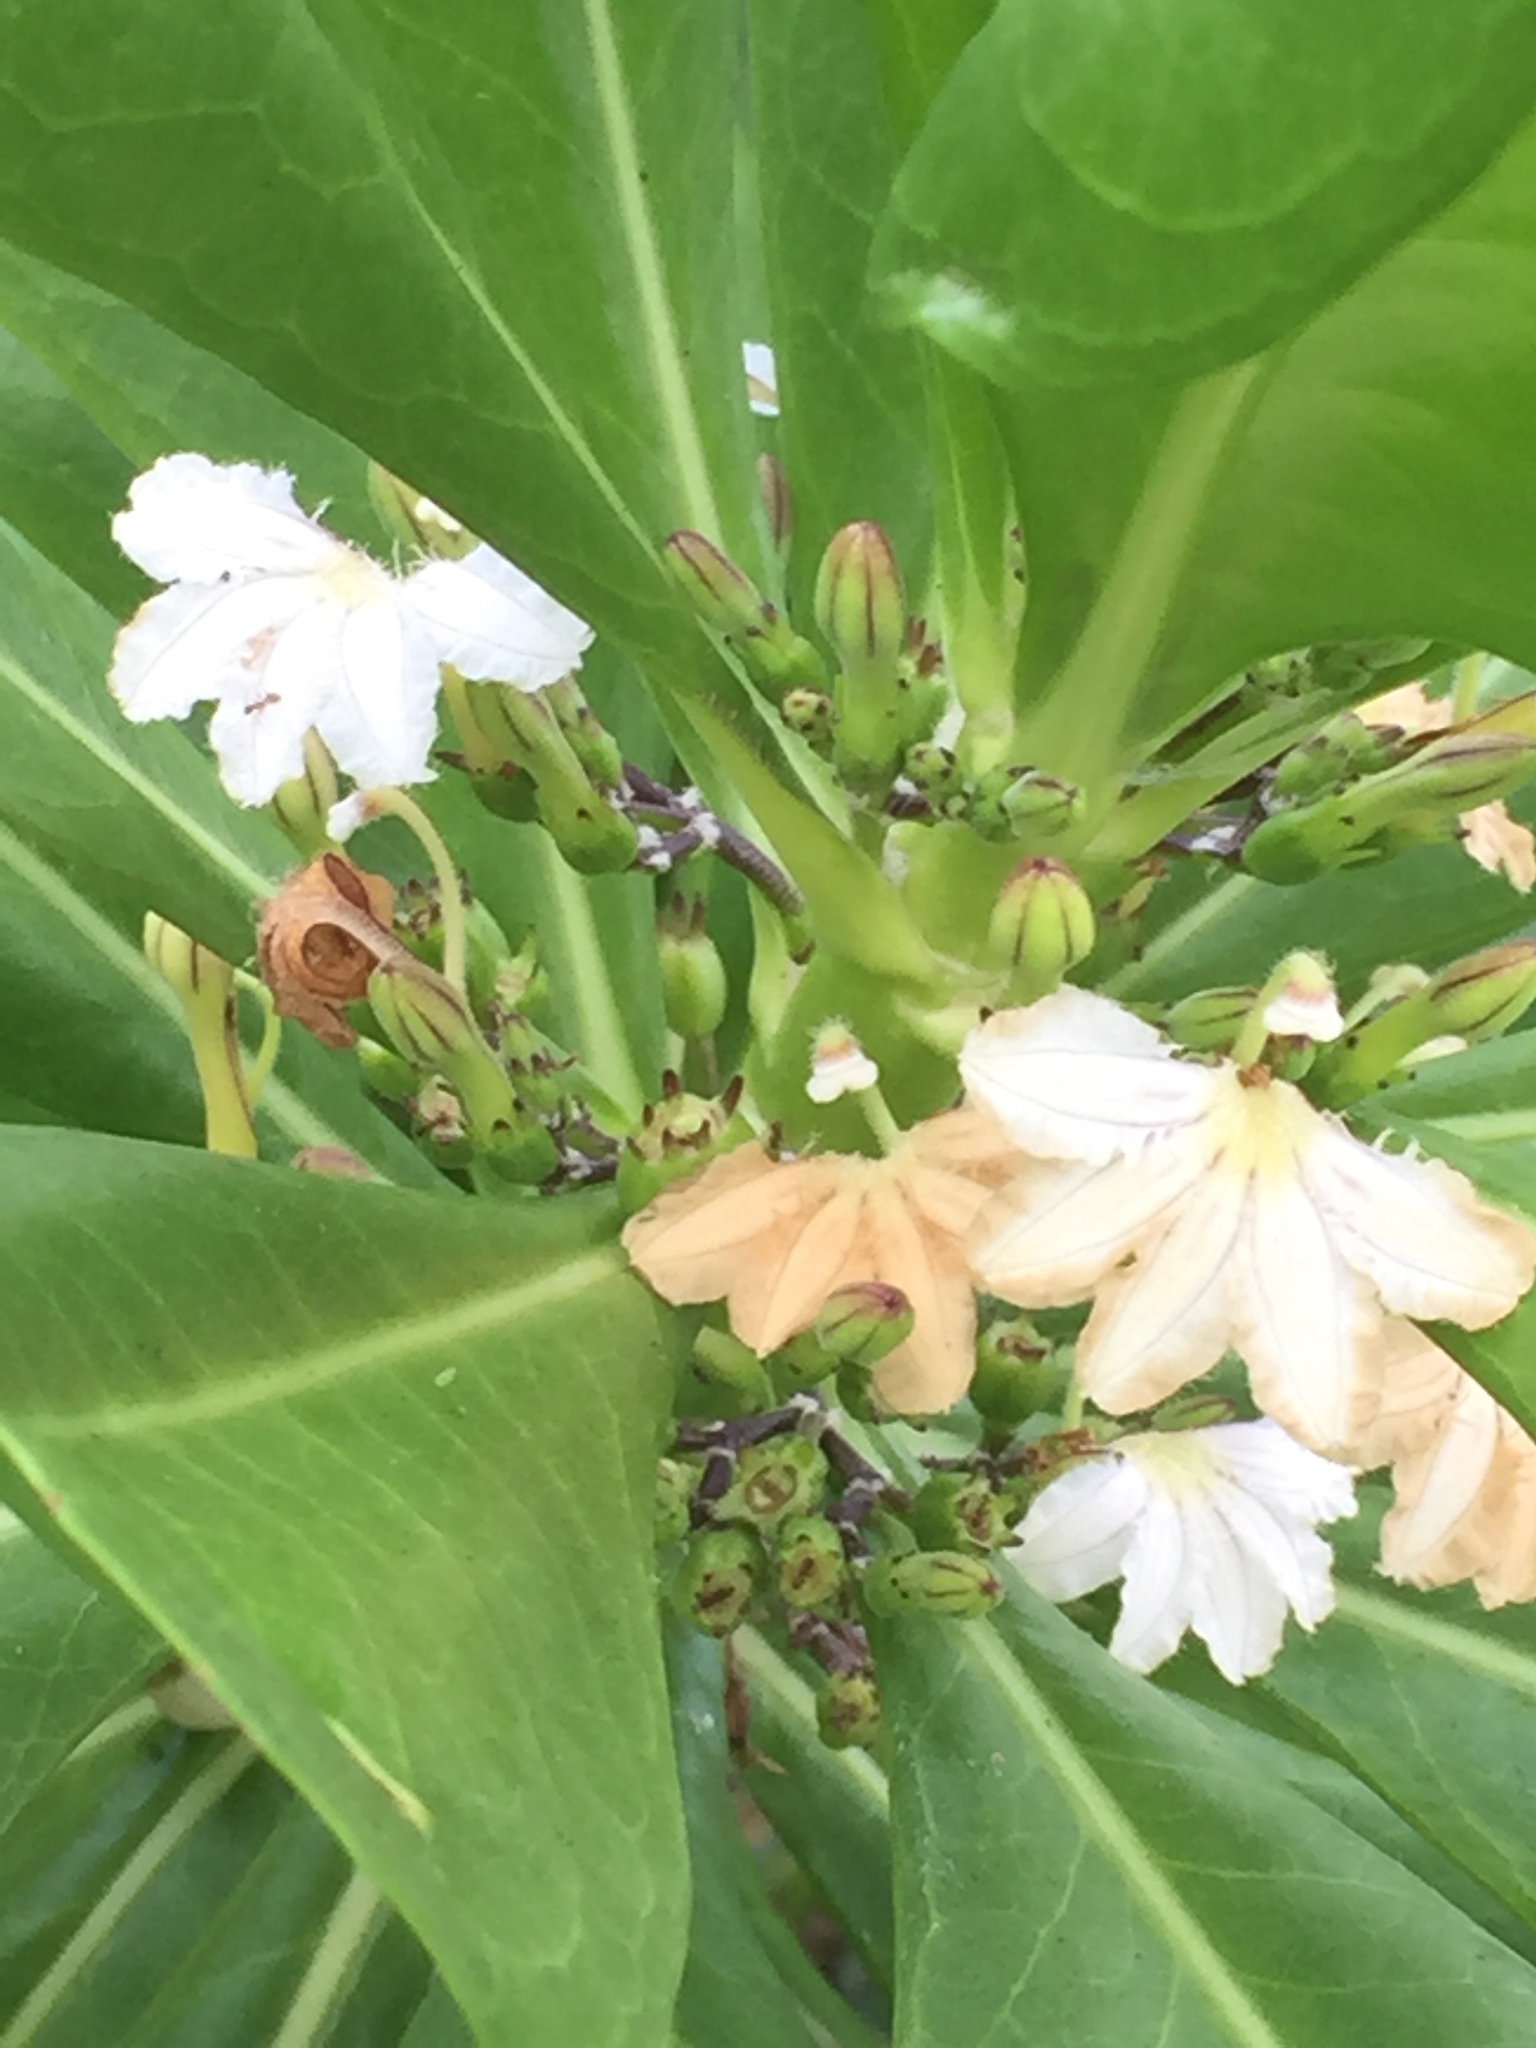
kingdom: Plantae
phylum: Tracheophyta
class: Magnoliopsida
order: Asterales
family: Goodeniaceae
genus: Scaevola
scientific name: Scaevola taccada
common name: Sea lettucetree
